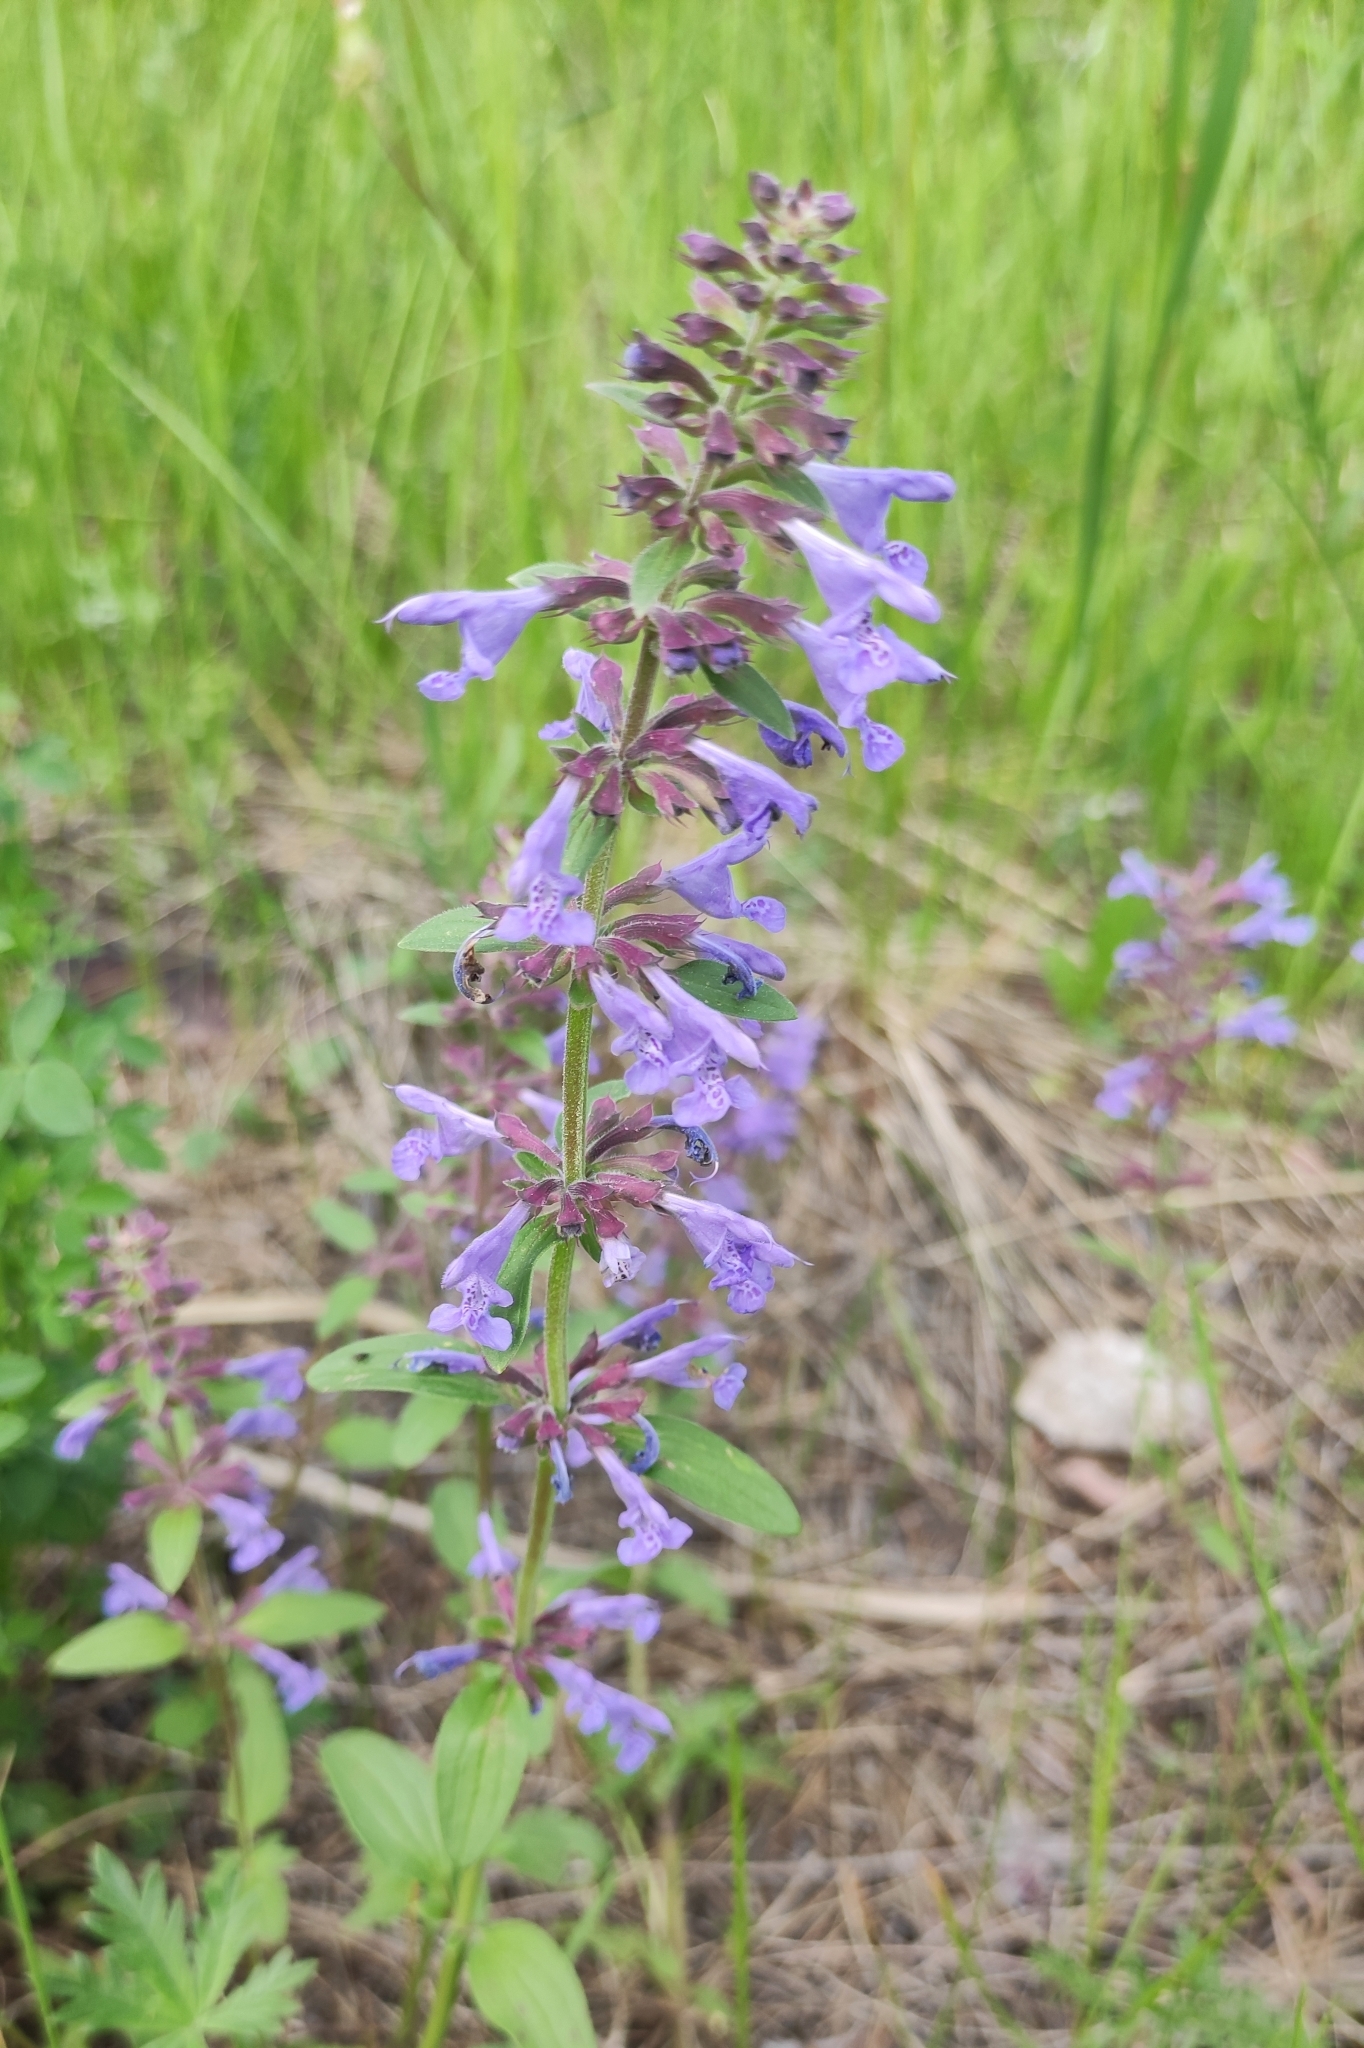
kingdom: Plantae
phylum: Tracheophyta
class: Magnoliopsida
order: Lamiales
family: Lamiaceae
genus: Dracocephalum
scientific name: Dracocephalum nutans
